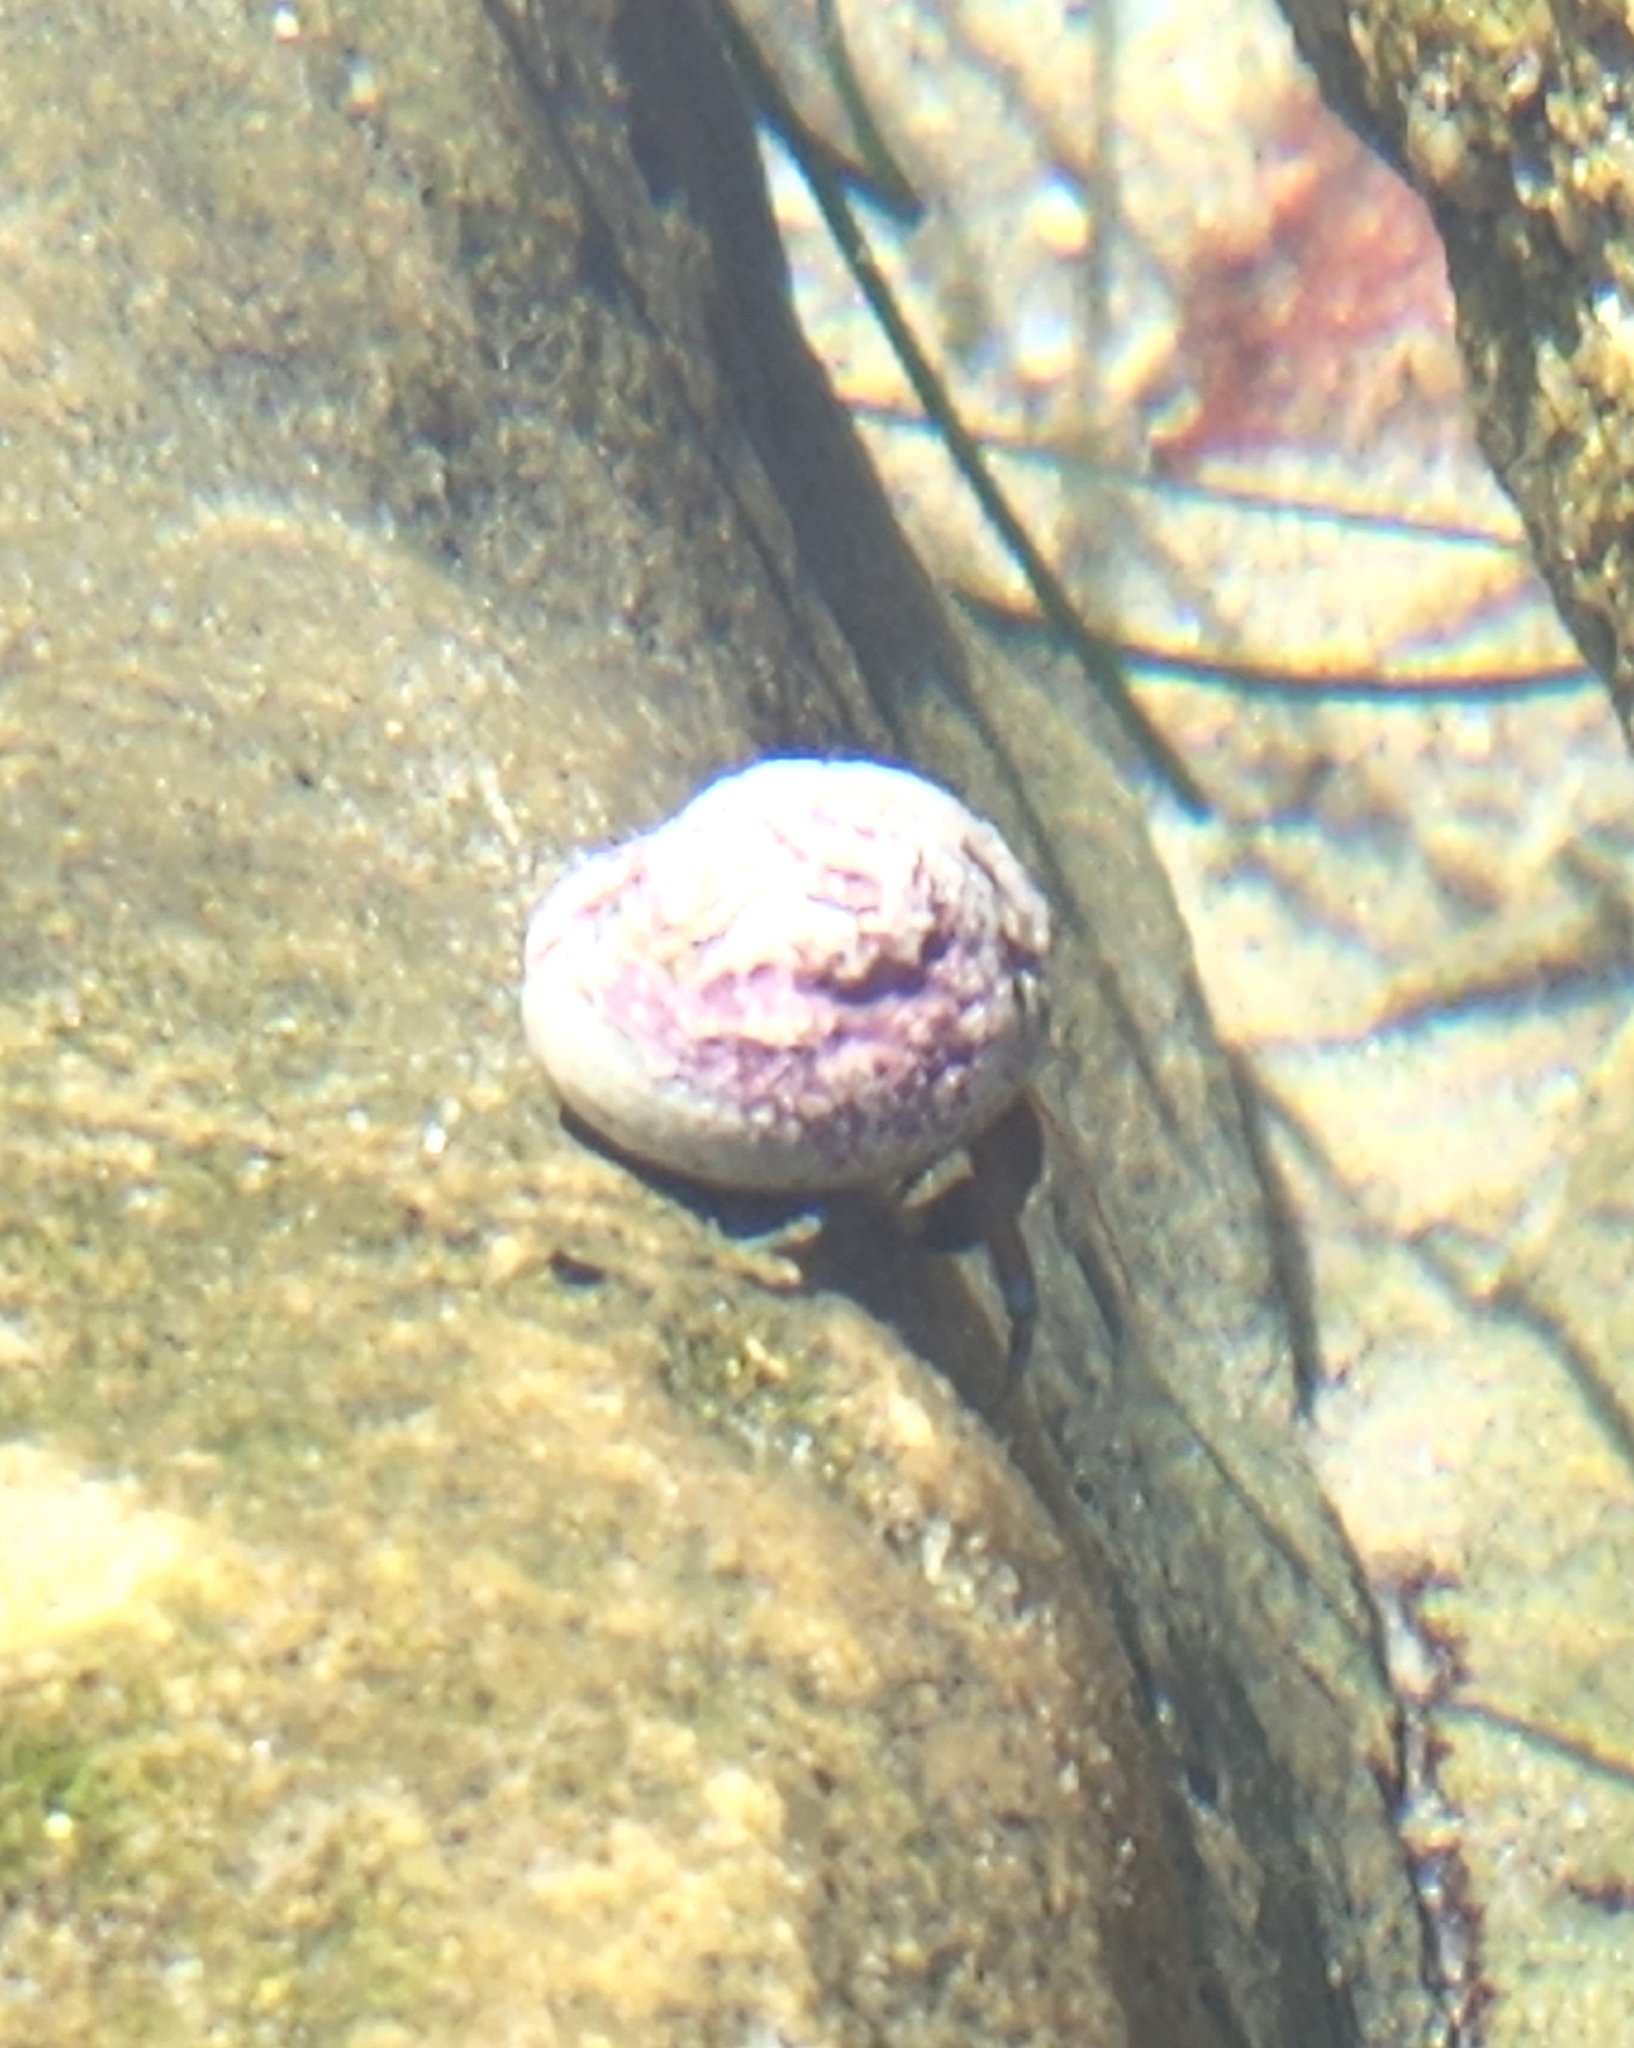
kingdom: Animalia
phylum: Arthropoda
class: Malacostraca
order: Decapoda
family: Paguridae
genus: Pagurus
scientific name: Pagurus samuelis
